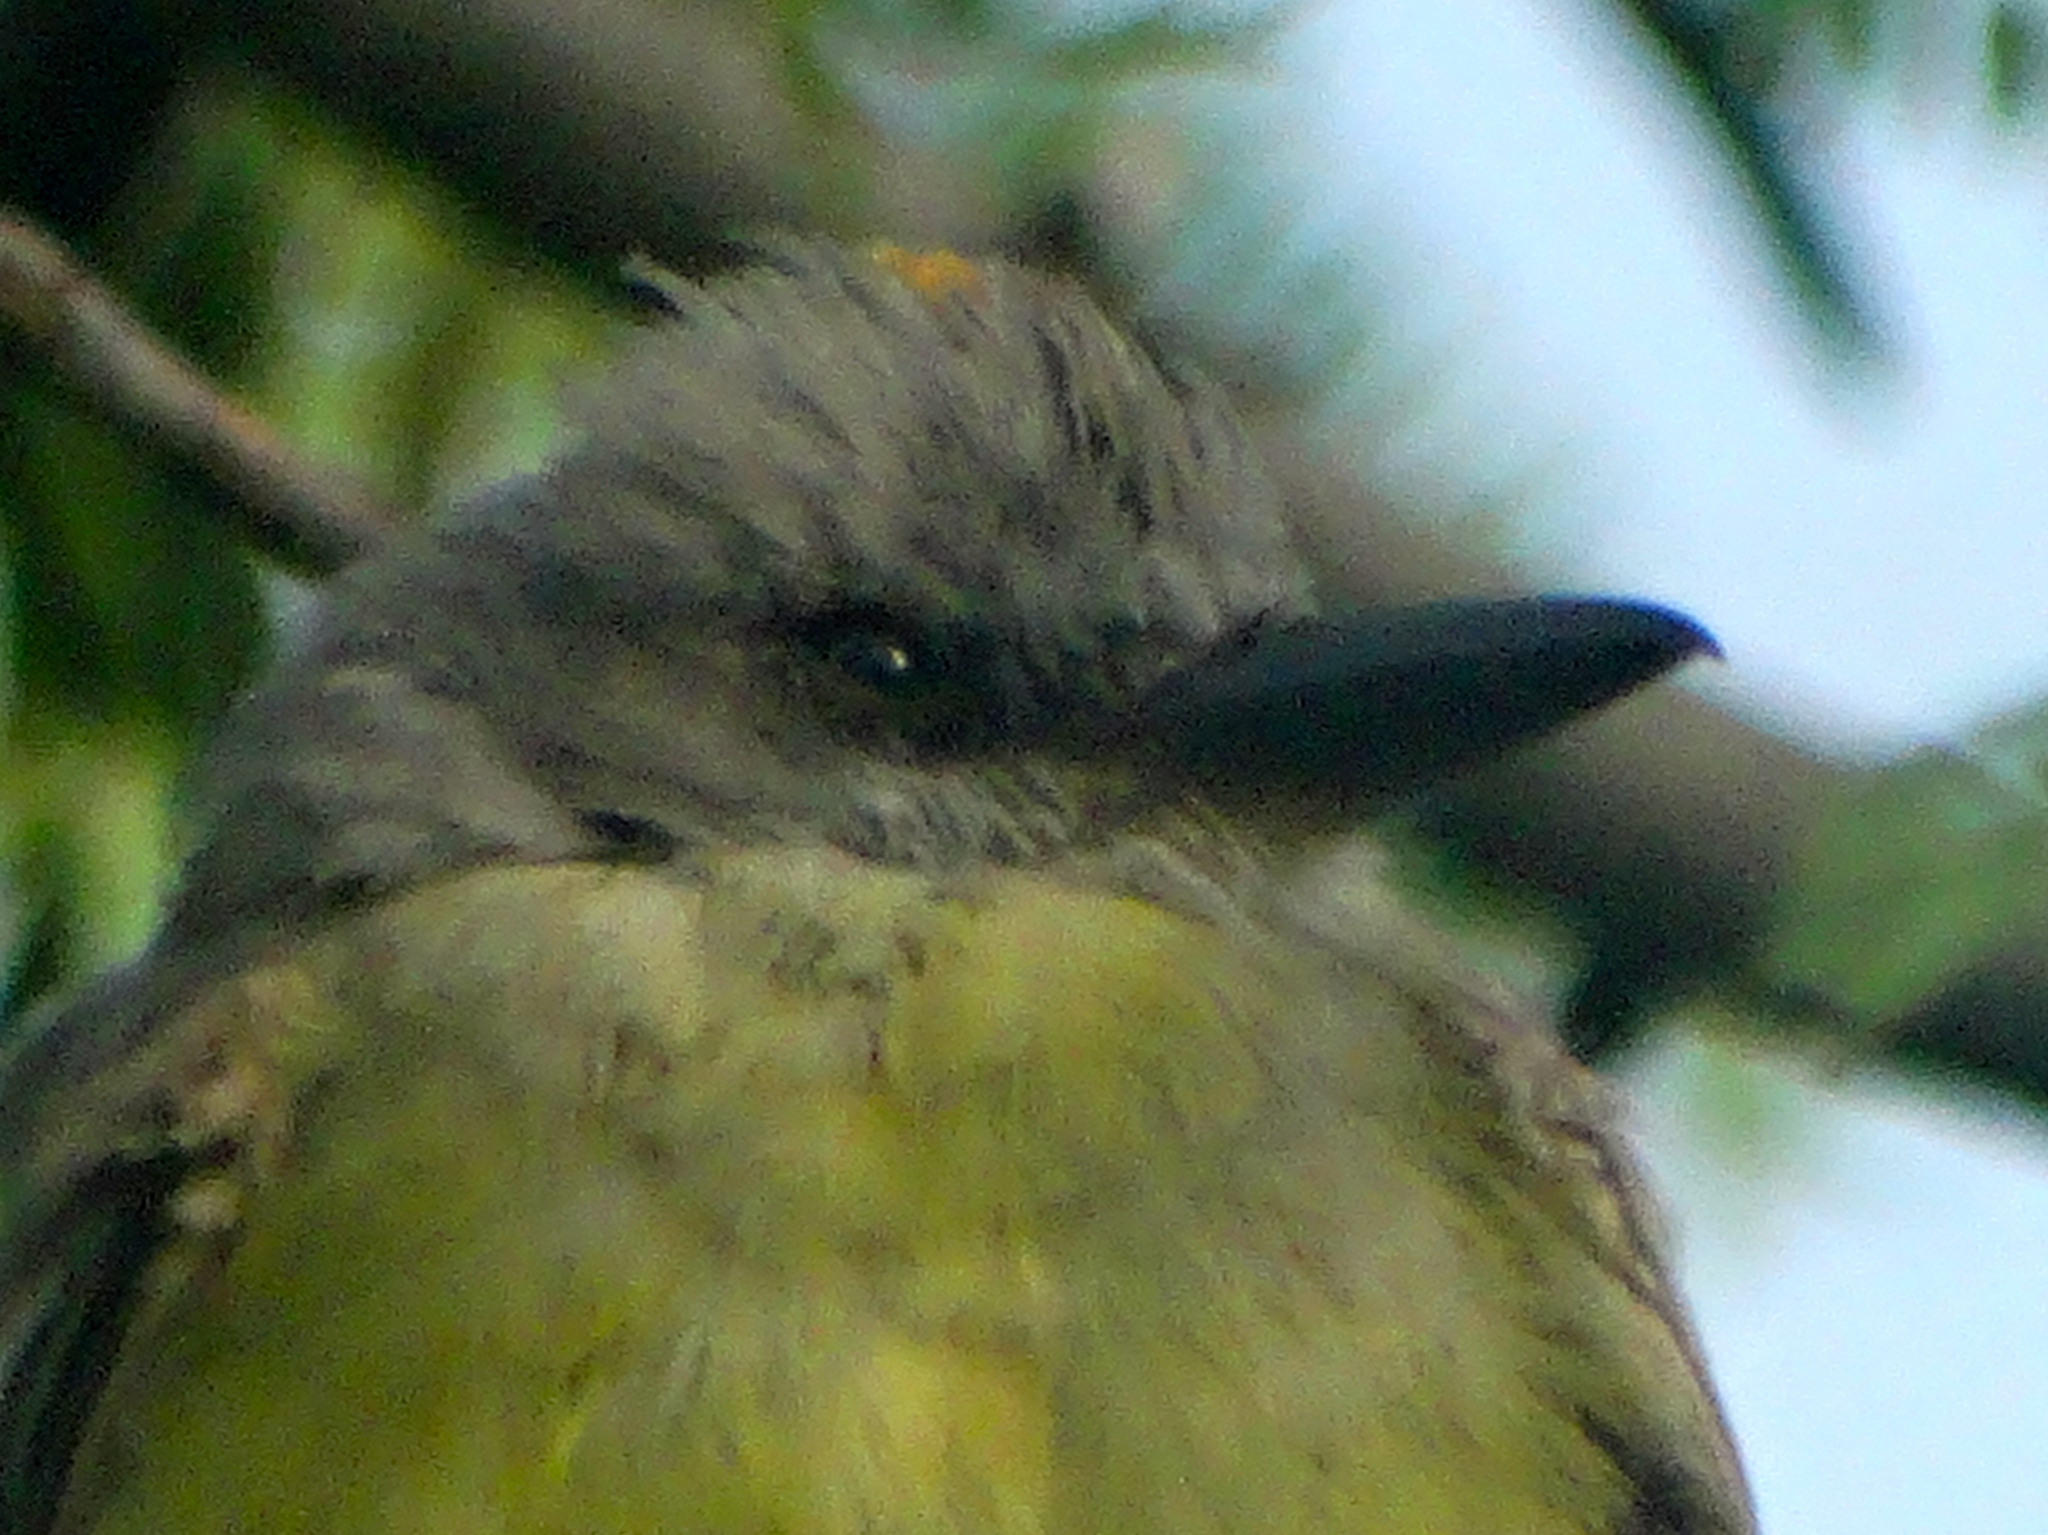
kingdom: Animalia
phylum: Chordata
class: Aves
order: Passeriformes
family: Tyrannidae
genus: Tyrannus
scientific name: Tyrannus melancholicus
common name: Tropical kingbird
